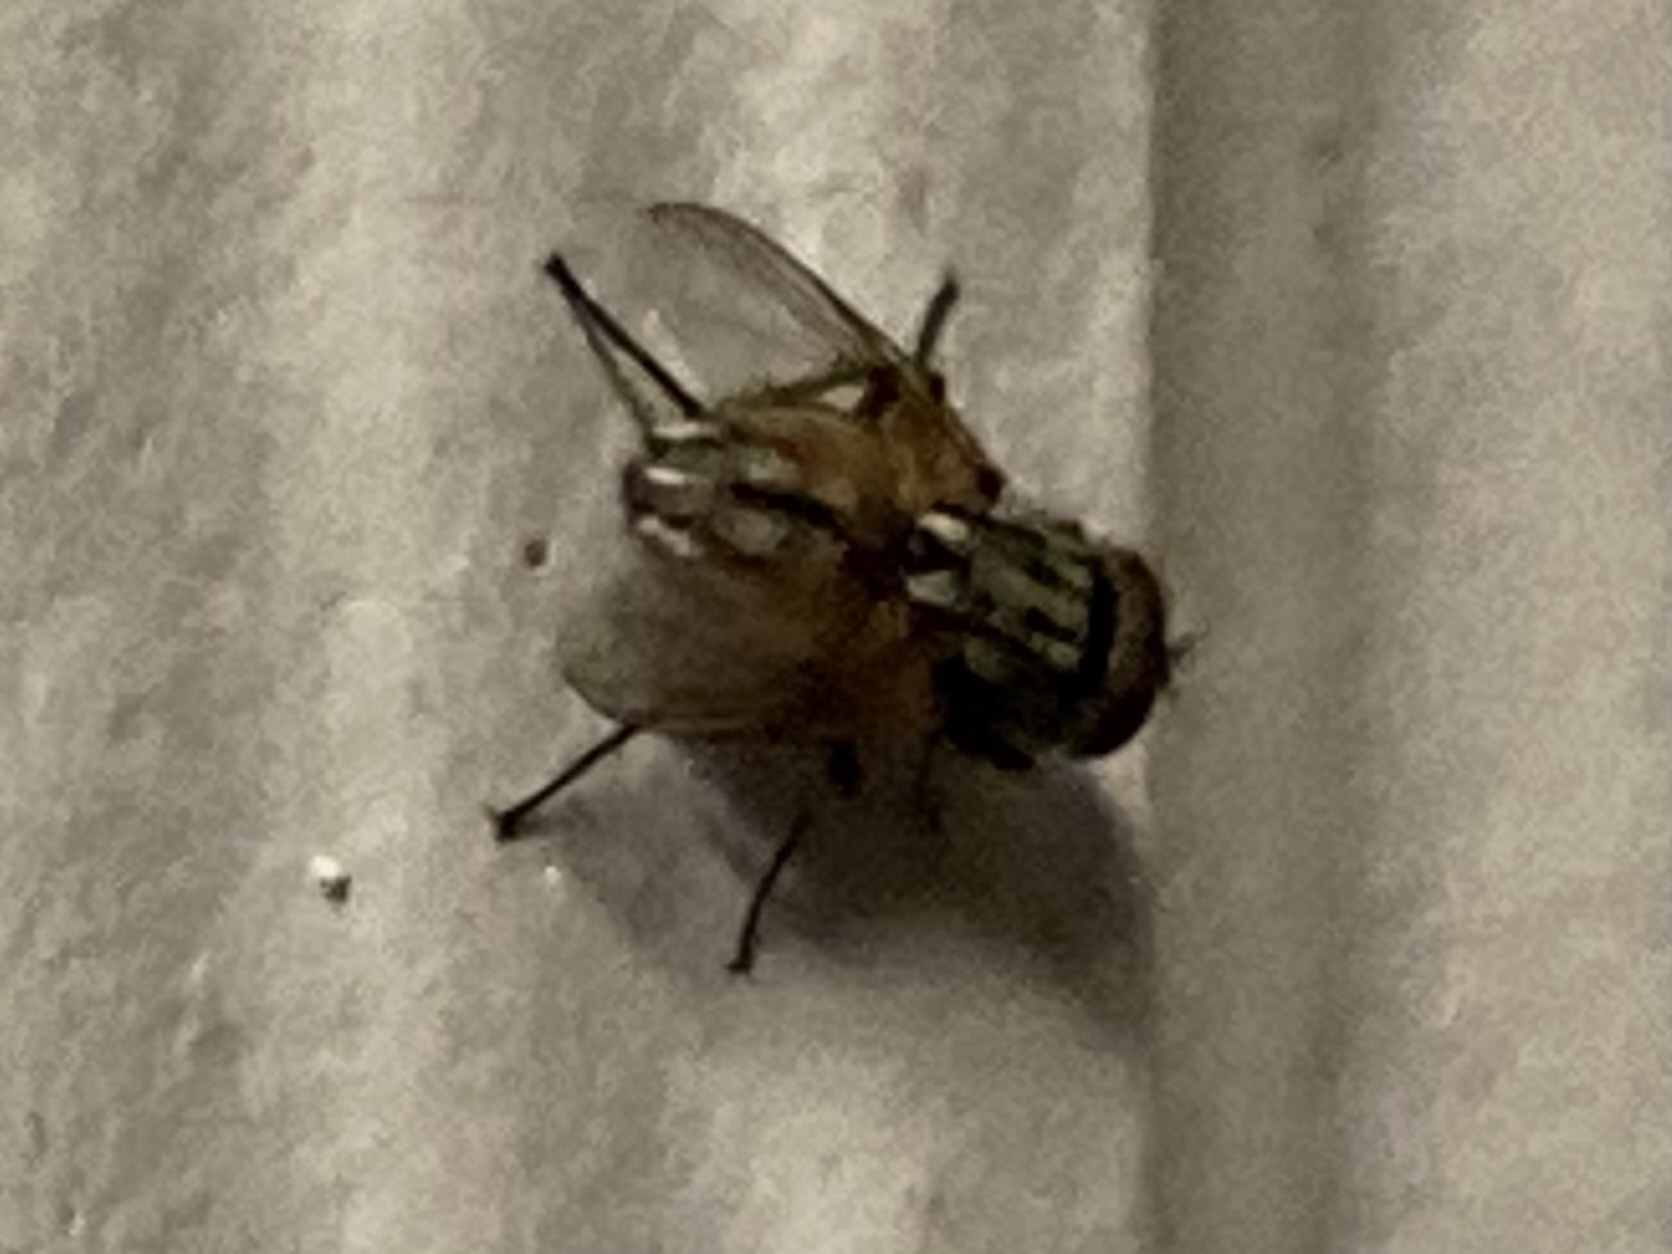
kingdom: Animalia
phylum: Arthropoda
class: Insecta
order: Diptera
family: Muscidae
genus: Musca
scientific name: Musca domestica
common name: House fly
